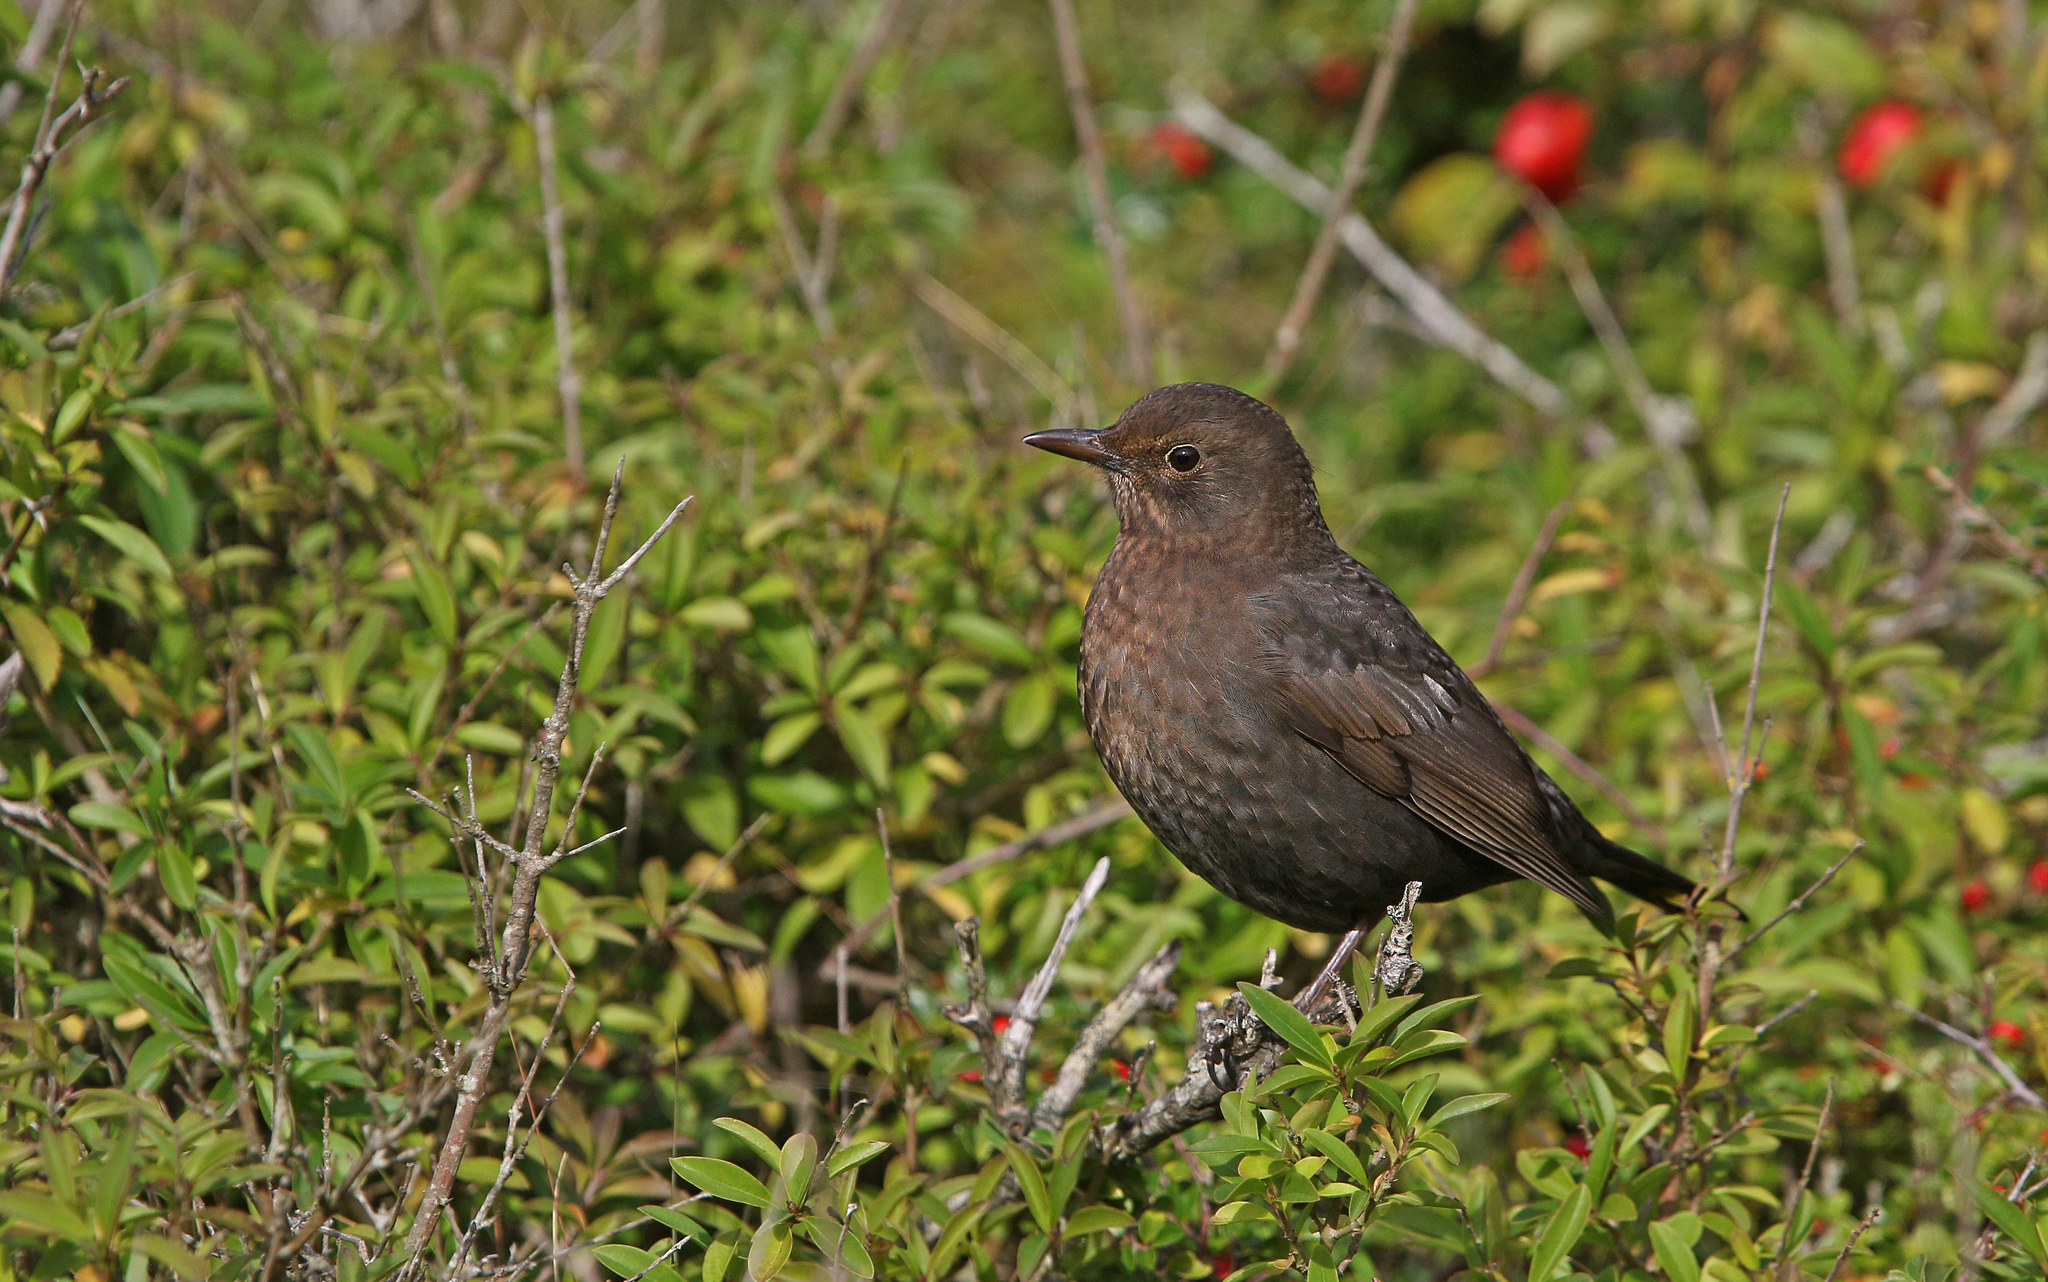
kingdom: Animalia
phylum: Chordata
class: Aves
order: Passeriformes
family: Turdidae
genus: Turdus
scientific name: Turdus merula
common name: Common blackbird
